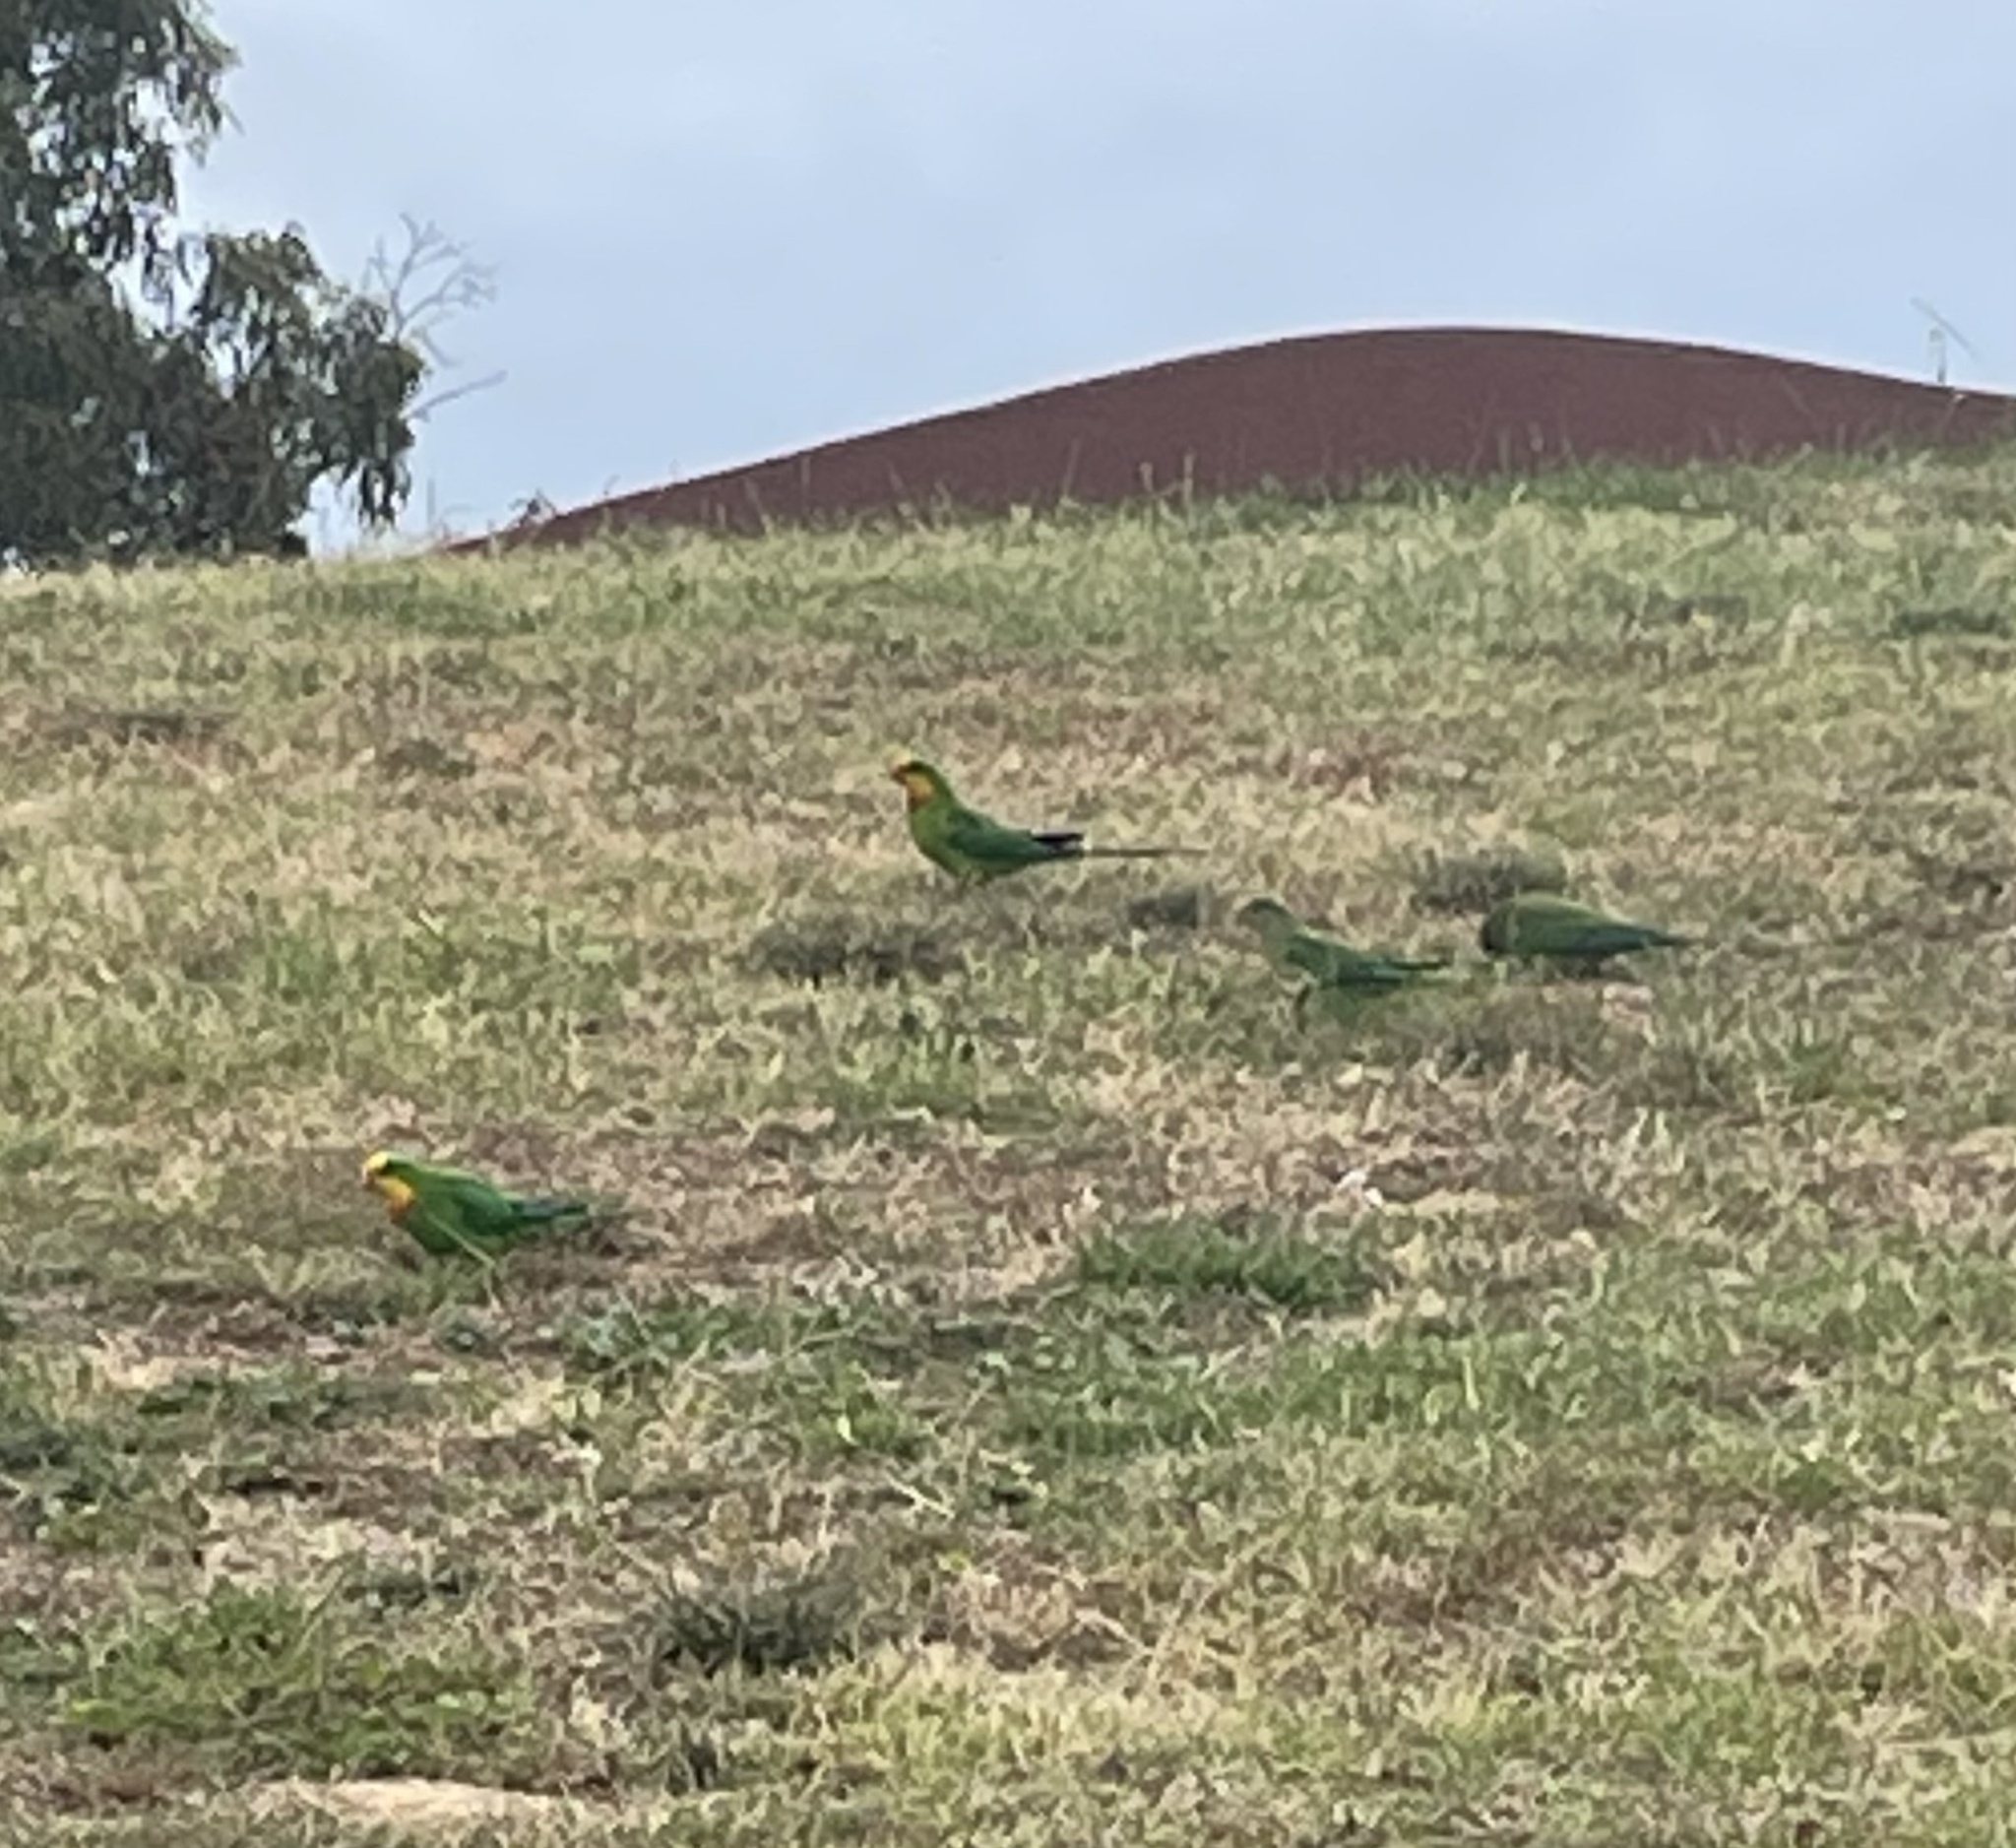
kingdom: Animalia
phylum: Chordata
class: Aves
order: Psittaciformes
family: Psittacidae
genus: Polytelis
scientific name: Polytelis swainsonii
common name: Superb parrot
